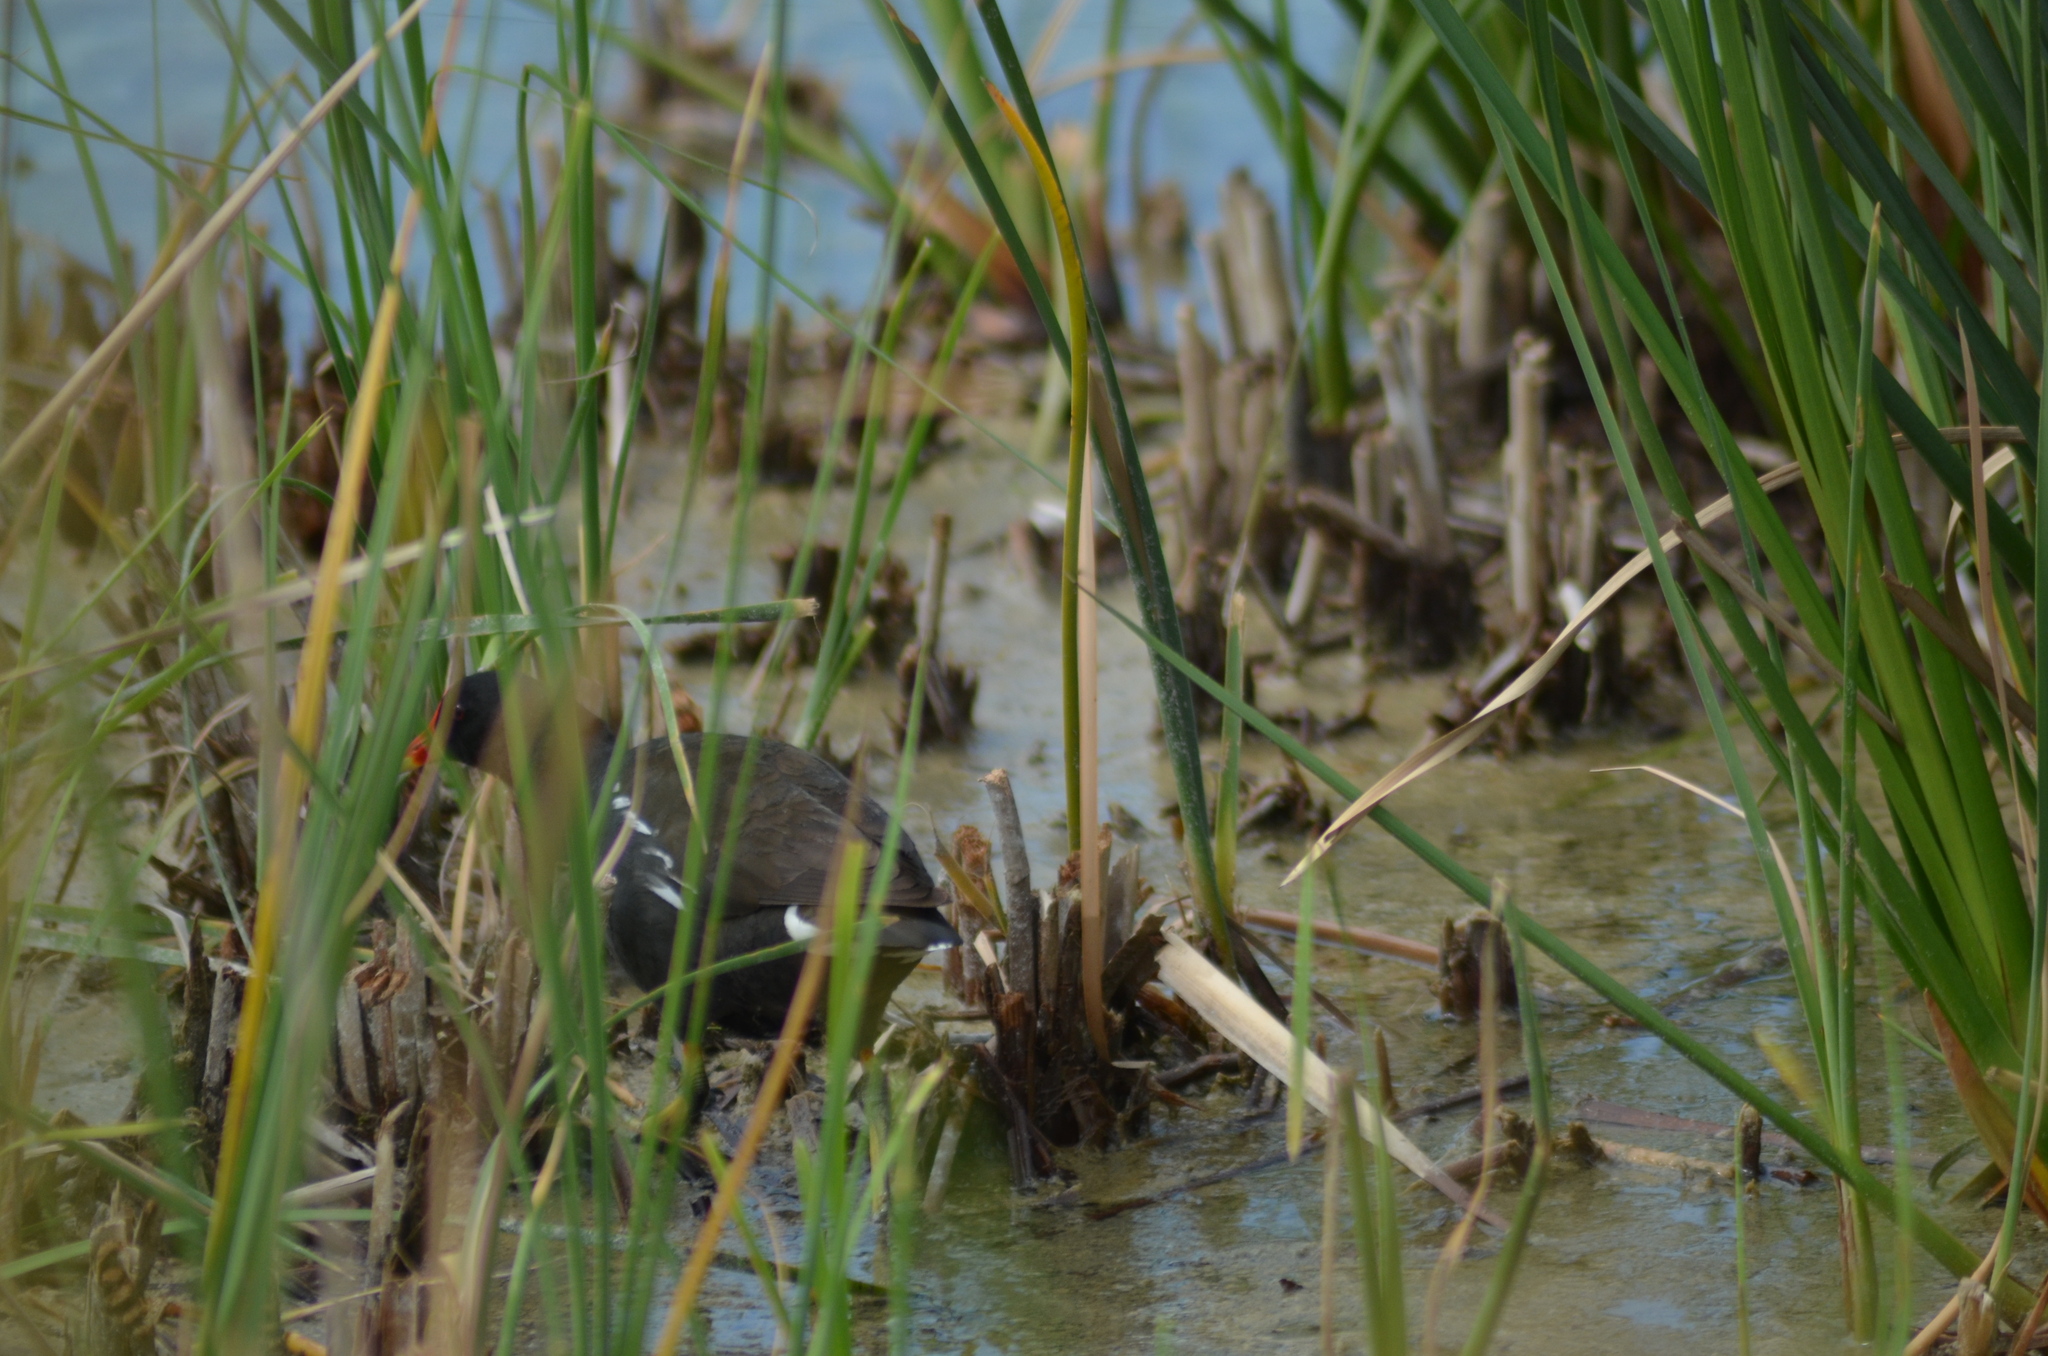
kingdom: Animalia
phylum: Chordata
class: Aves
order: Gruiformes
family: Rallidae
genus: Gallinula
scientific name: Gallinula chloropus
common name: Common moorhen
